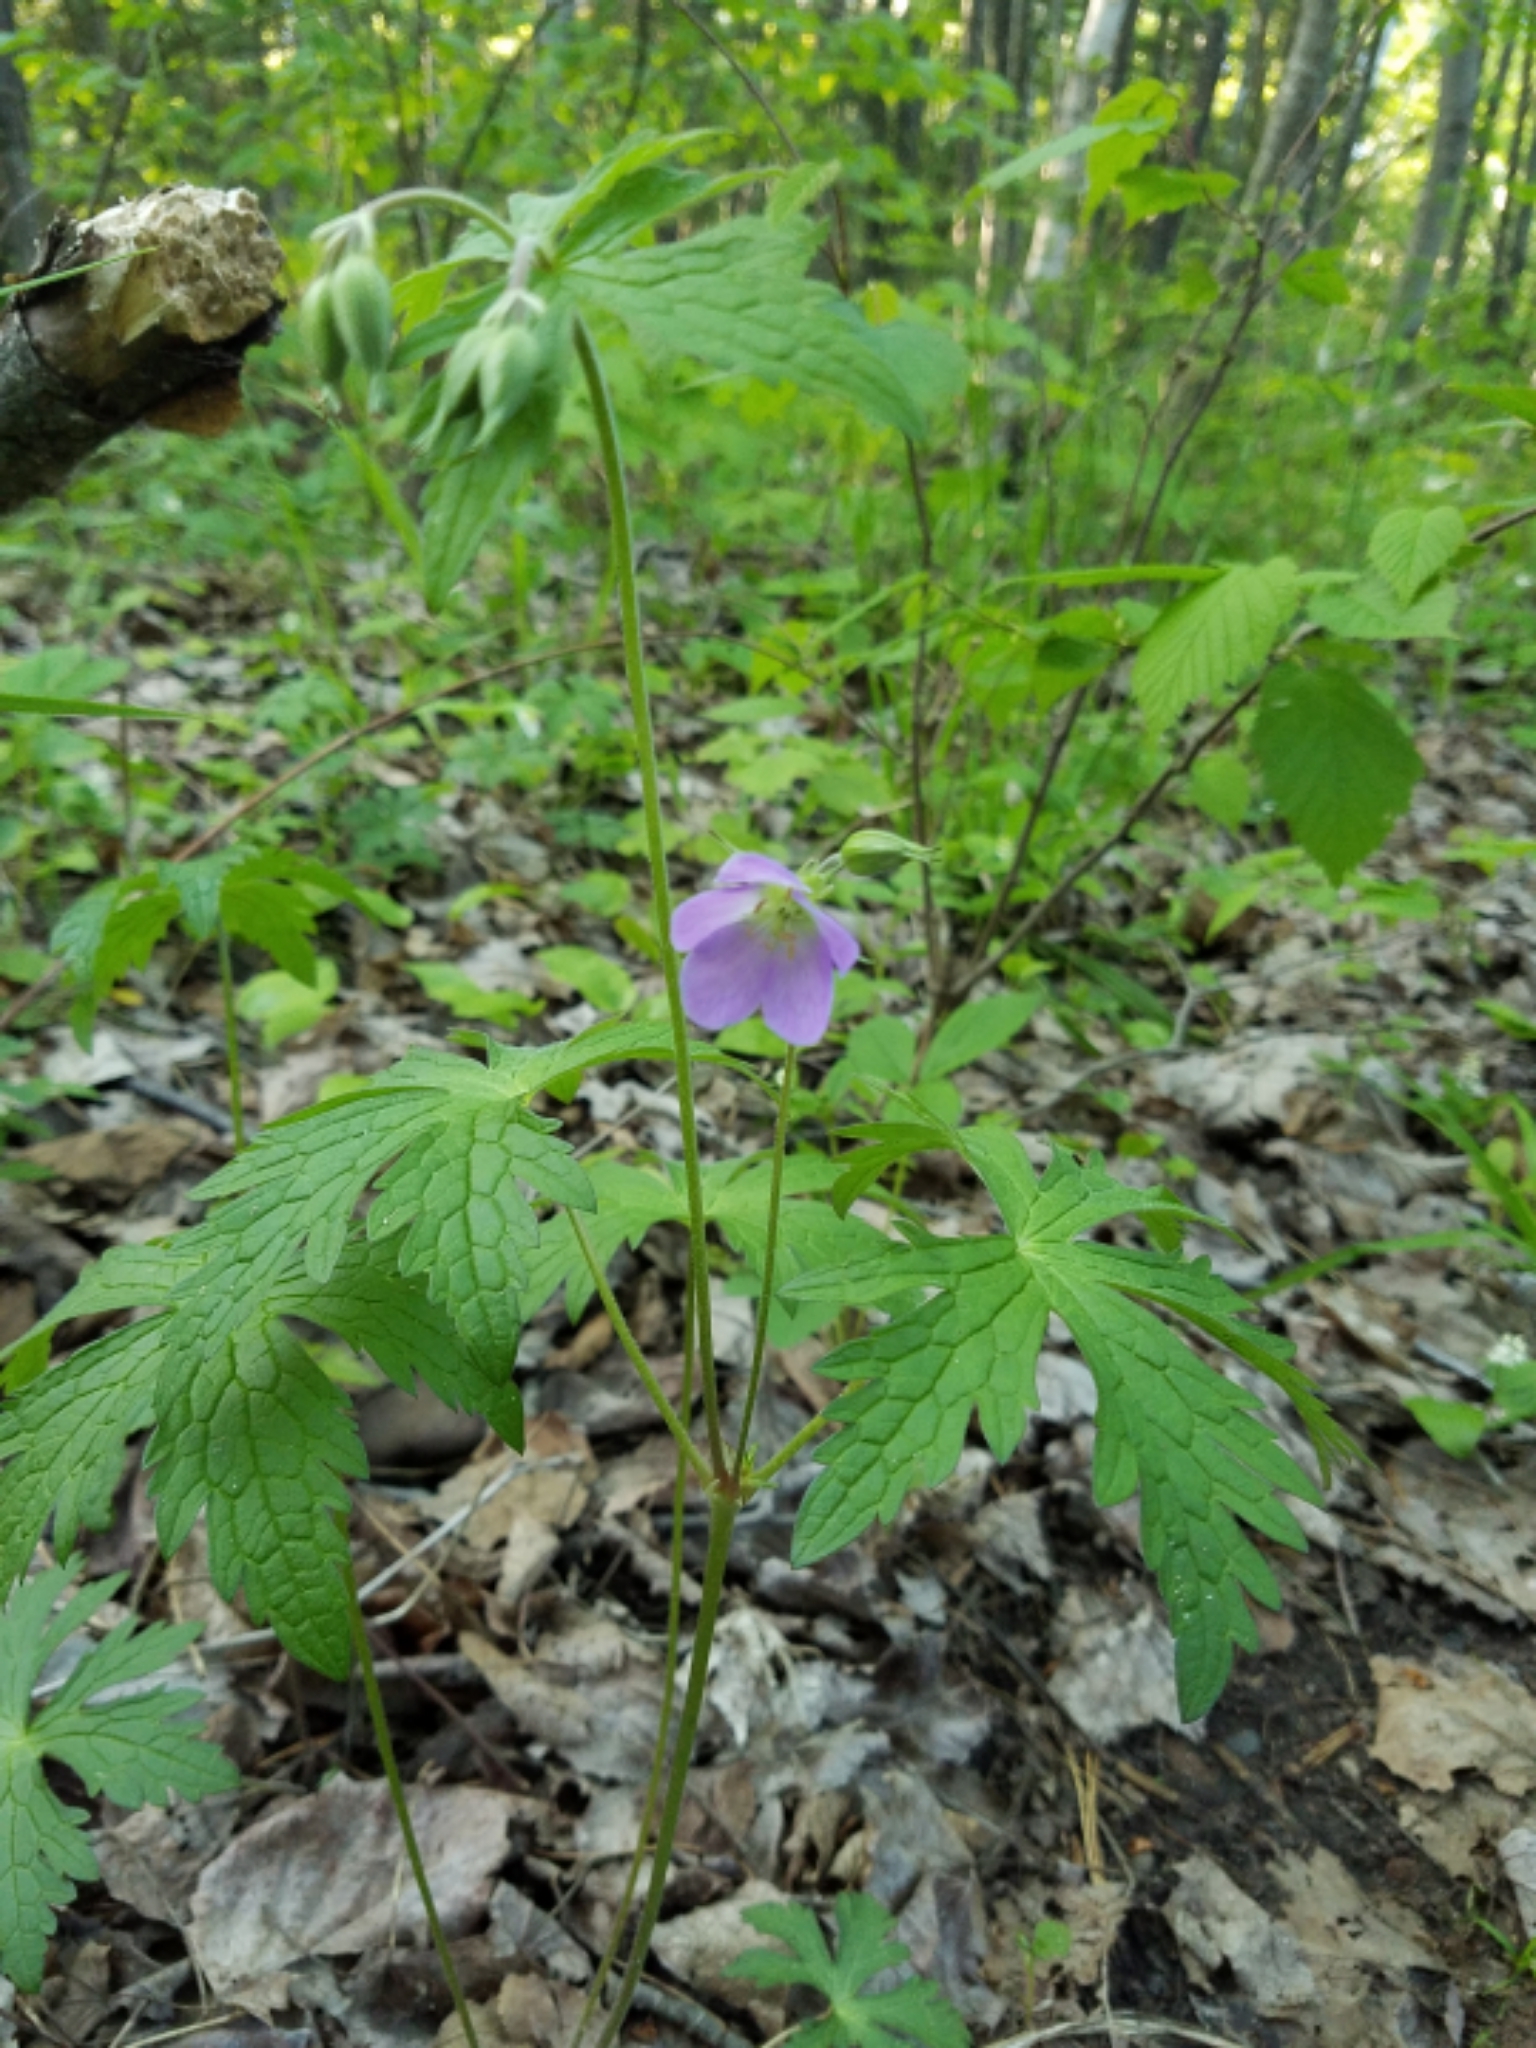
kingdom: Plantae
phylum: Tracheophyta
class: Magnoliopsida
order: Geraniales
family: Geraniaceae
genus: Geranium
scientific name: Geranium maculatum
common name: Spotted geranium
